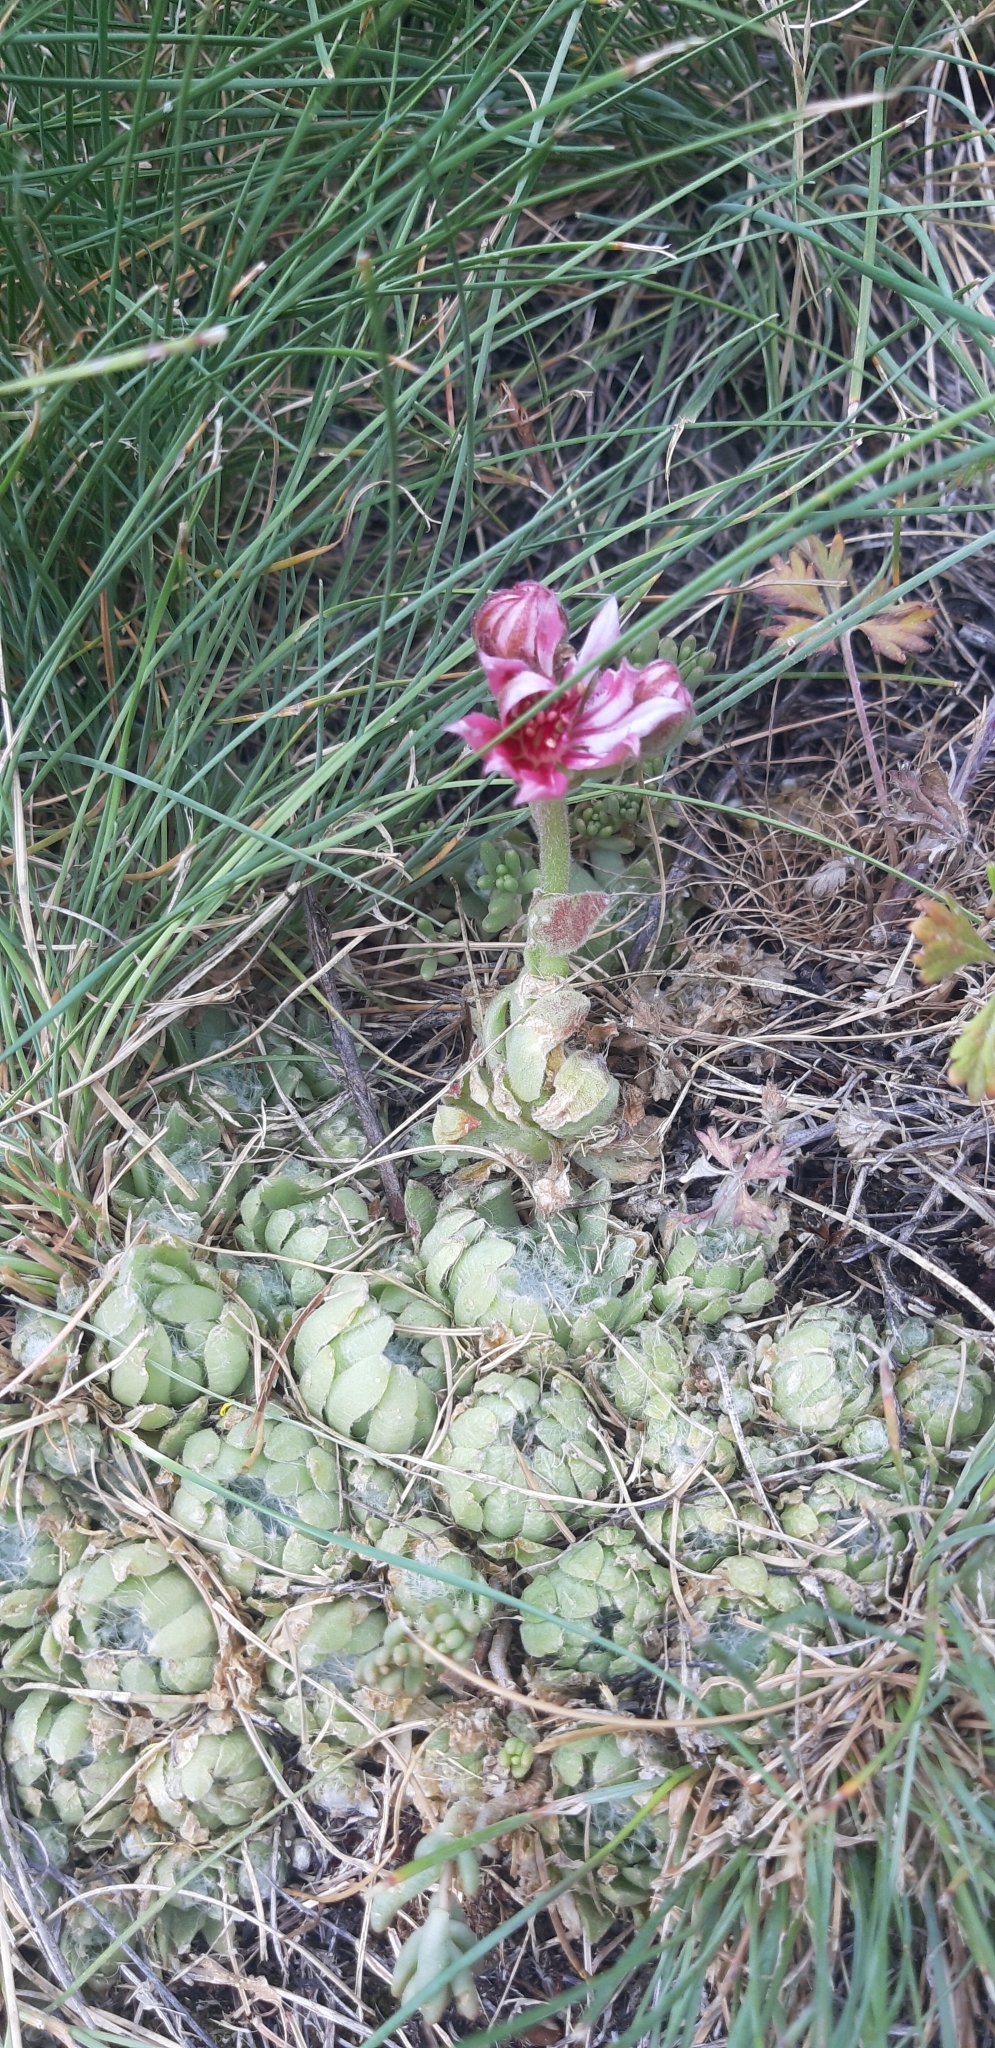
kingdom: Plantae
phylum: Tracheophyta
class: Magnoliopsida
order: Saxifragales
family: Crassulaceae
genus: Sempervivum
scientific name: Sempervivum arachnoideum
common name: Cobweb house-leek
